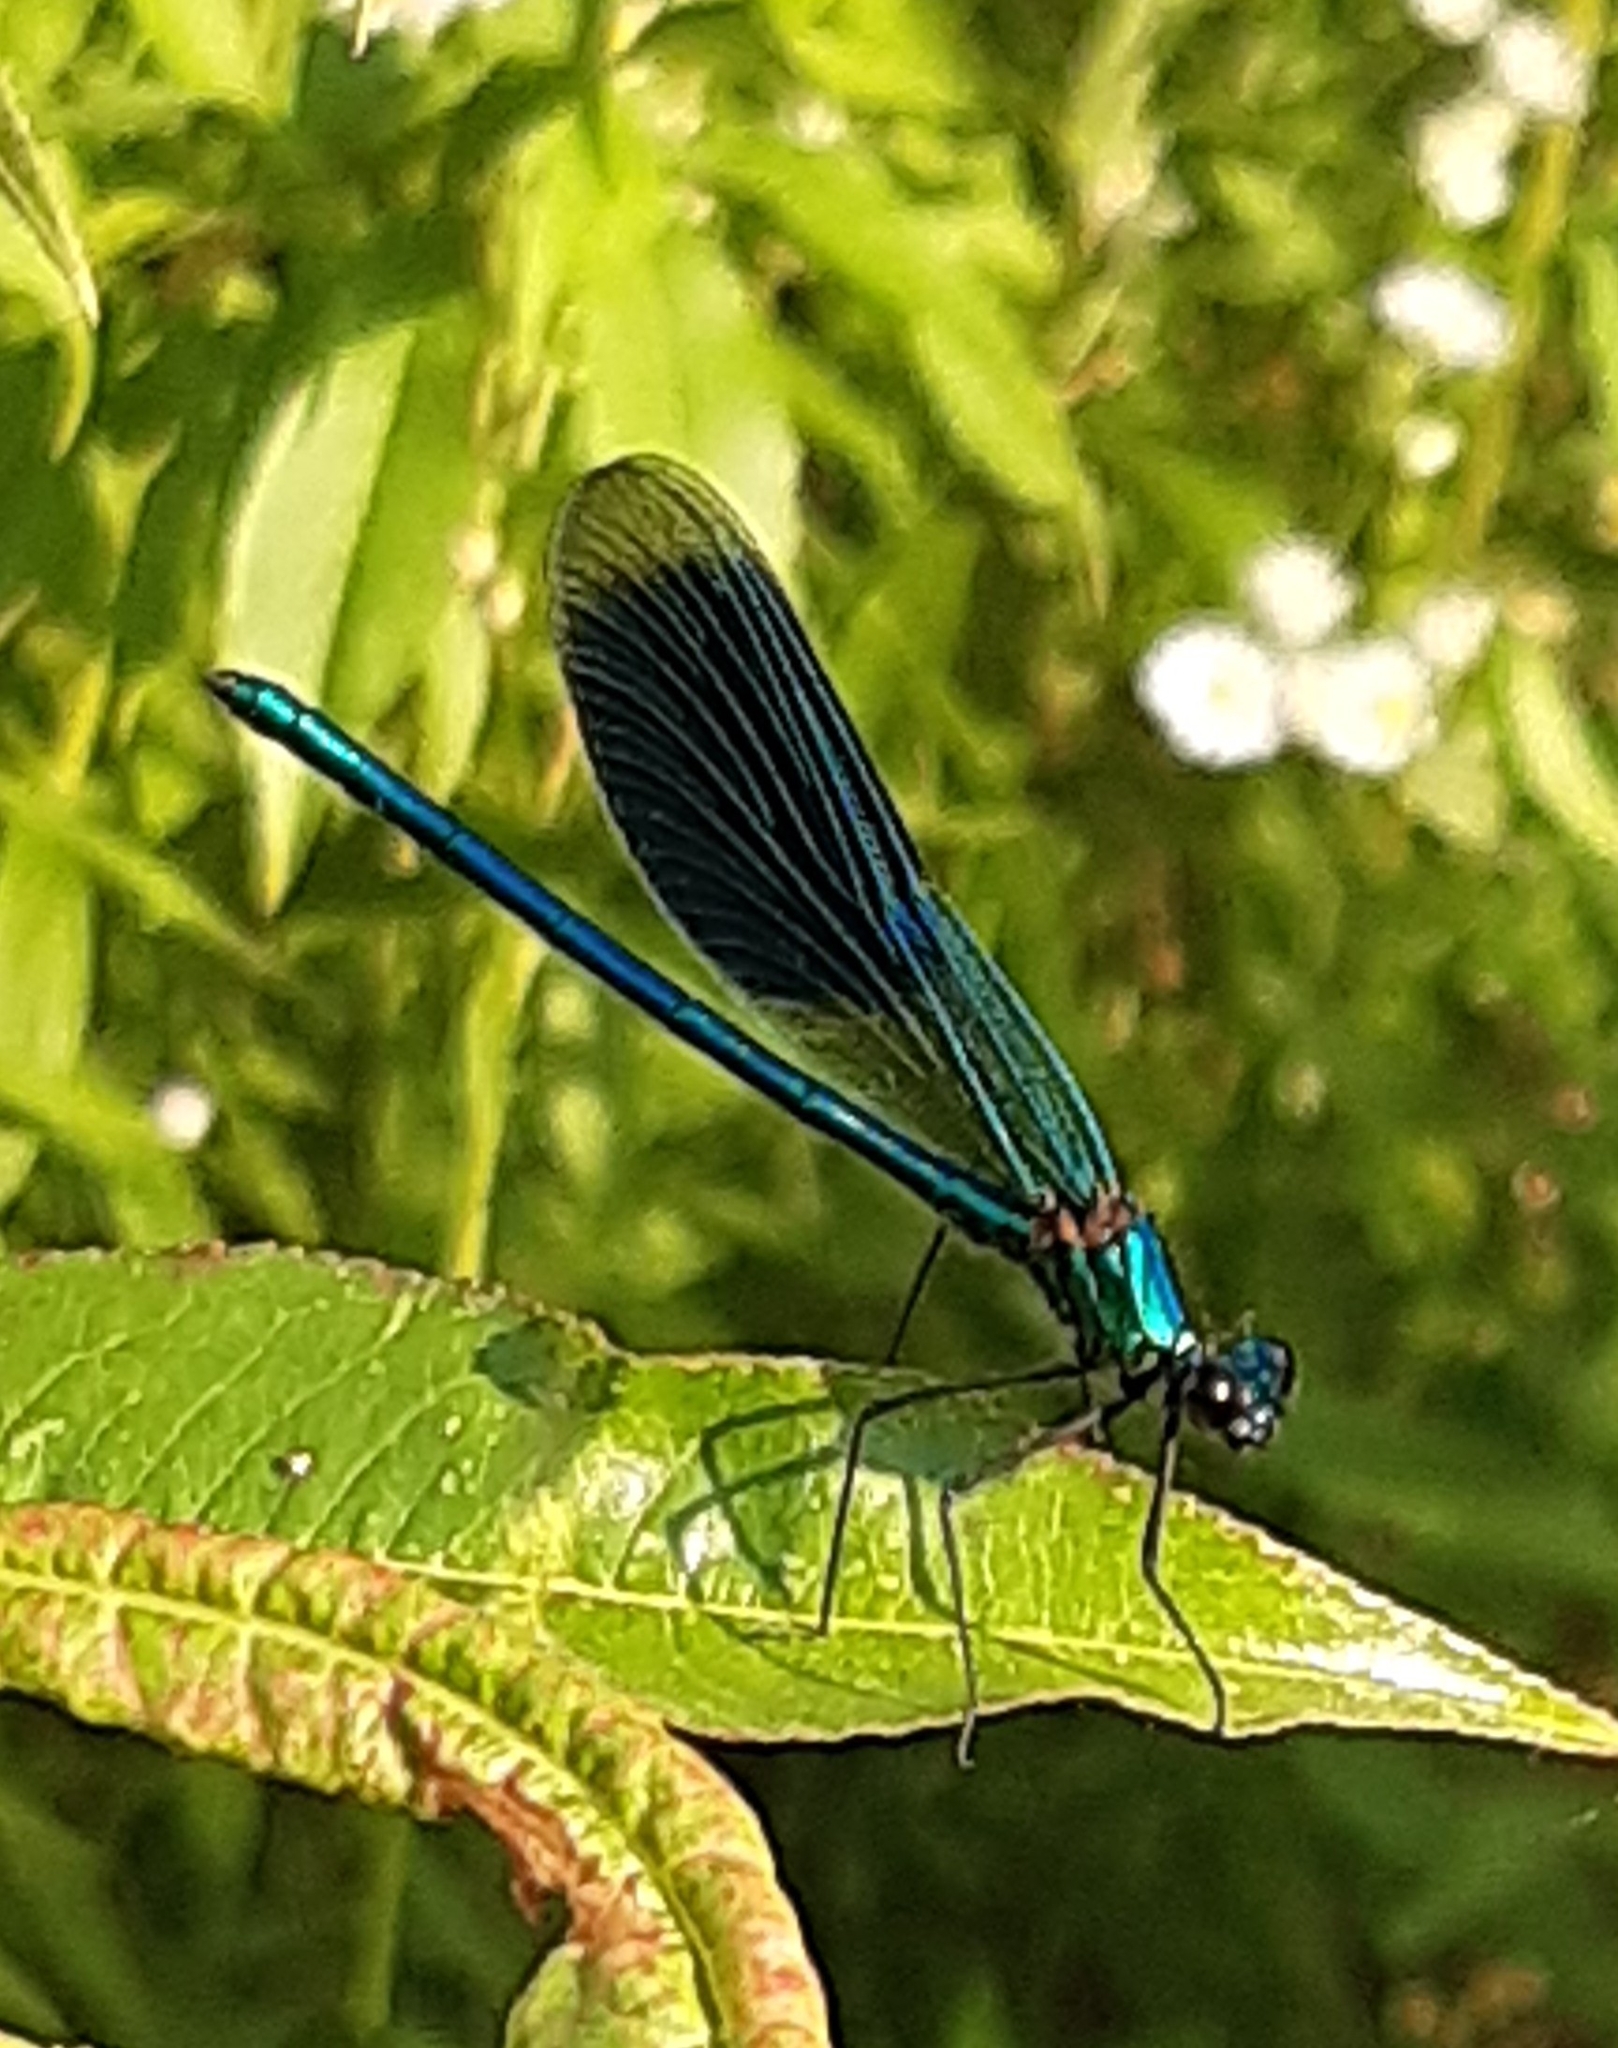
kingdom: Animalia
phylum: Arthropoda
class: Insecta
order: Odonata
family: Calopterygidae
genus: Calopteryx
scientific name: Calopteryx splendens
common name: Banded demoiselle
